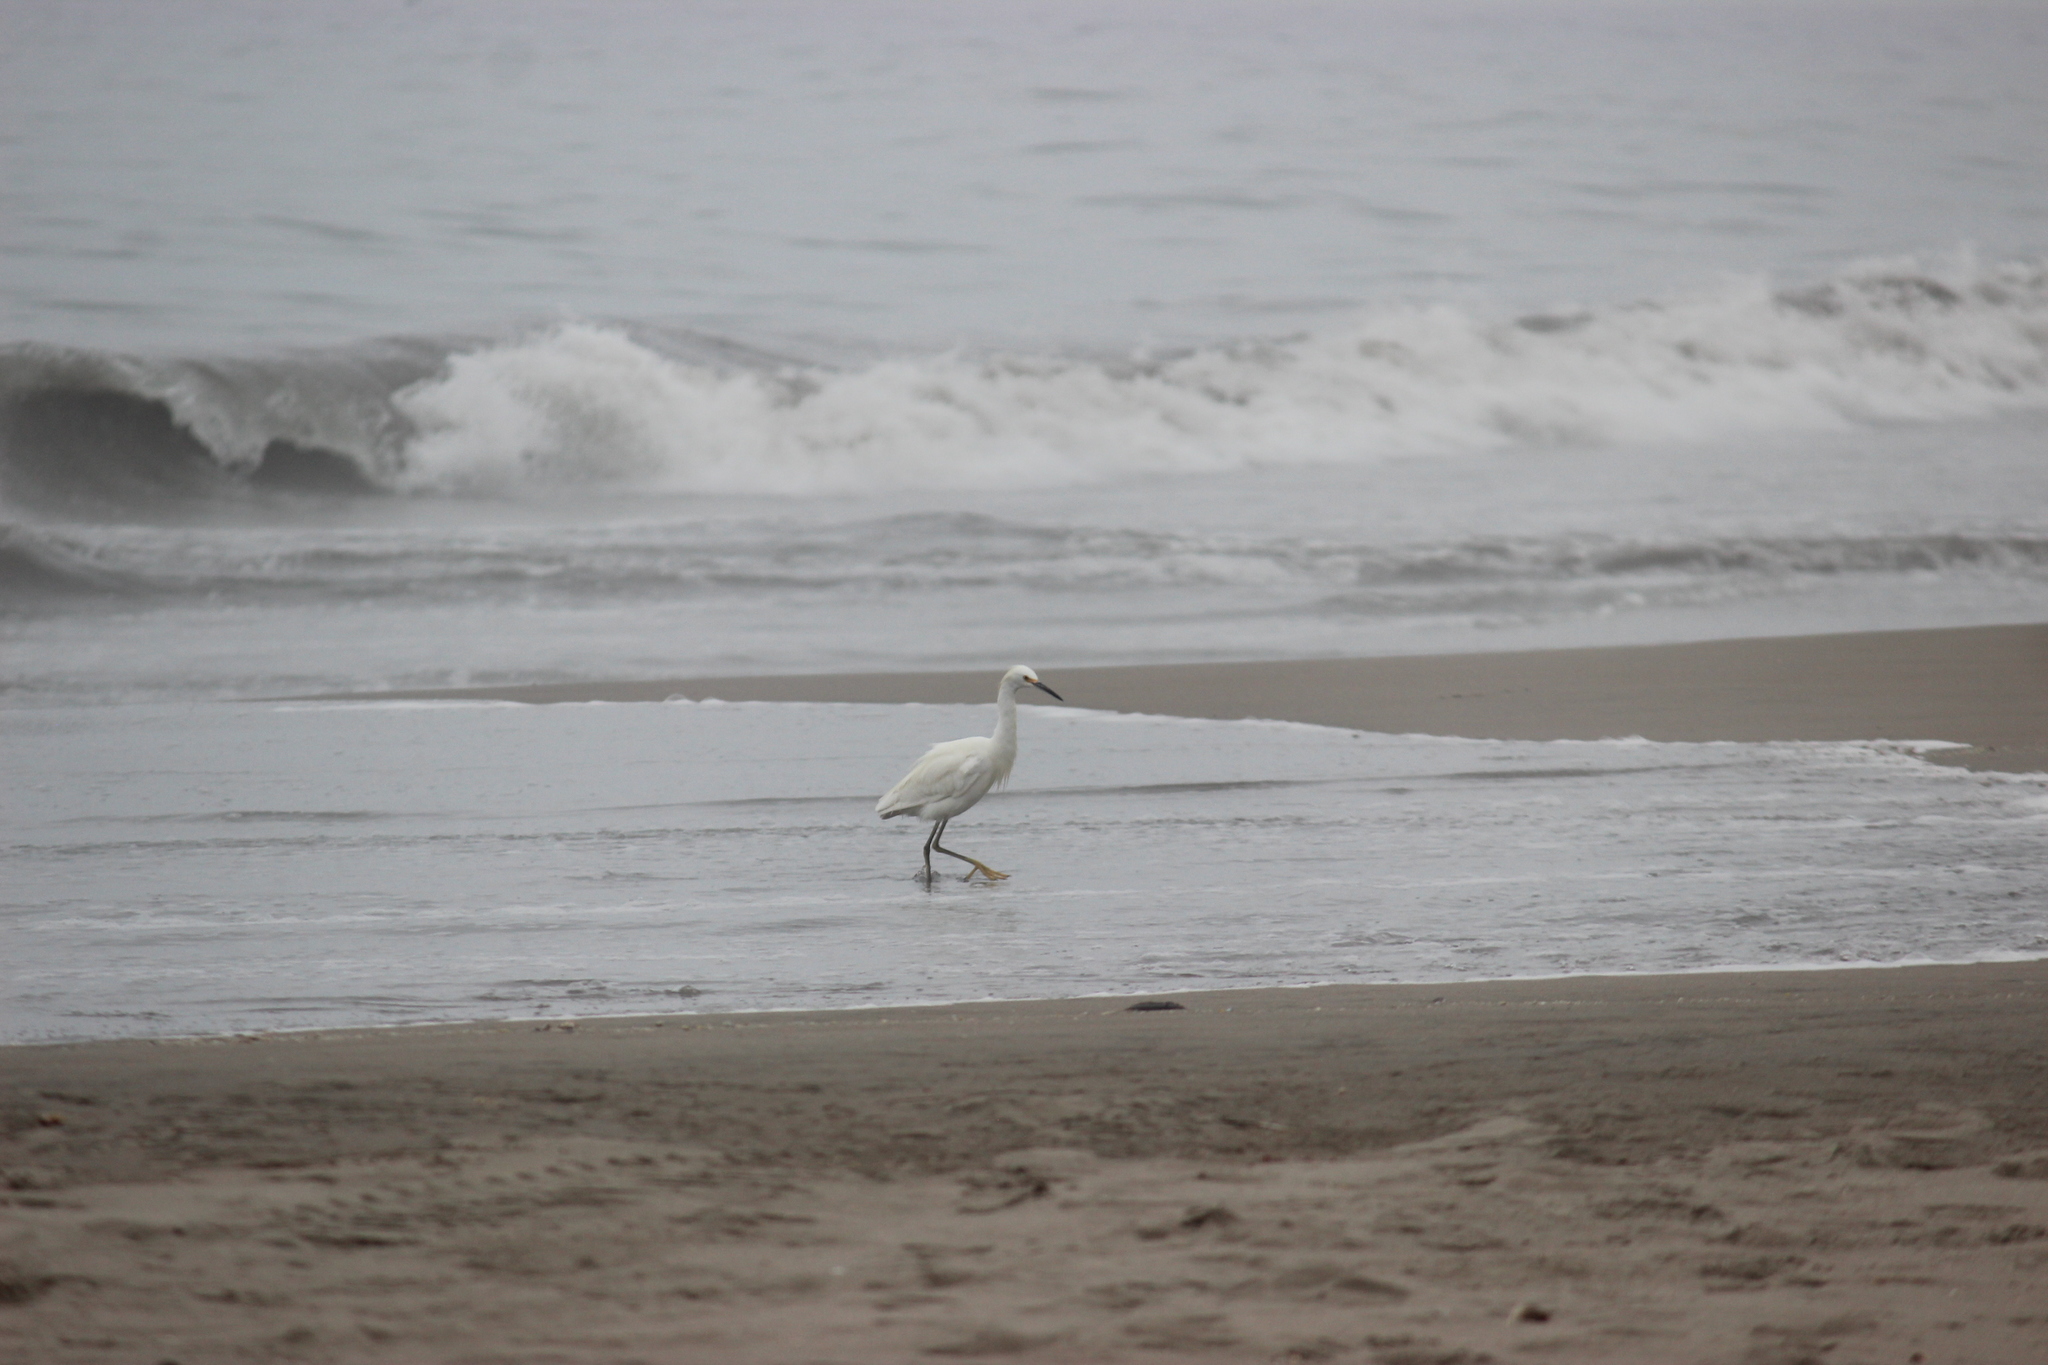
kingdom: Animalia
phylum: Chordata
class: Aves
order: Pelecaniformes
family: Ardeidae
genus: Egretta
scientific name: Egretta thula
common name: Snowy egret
